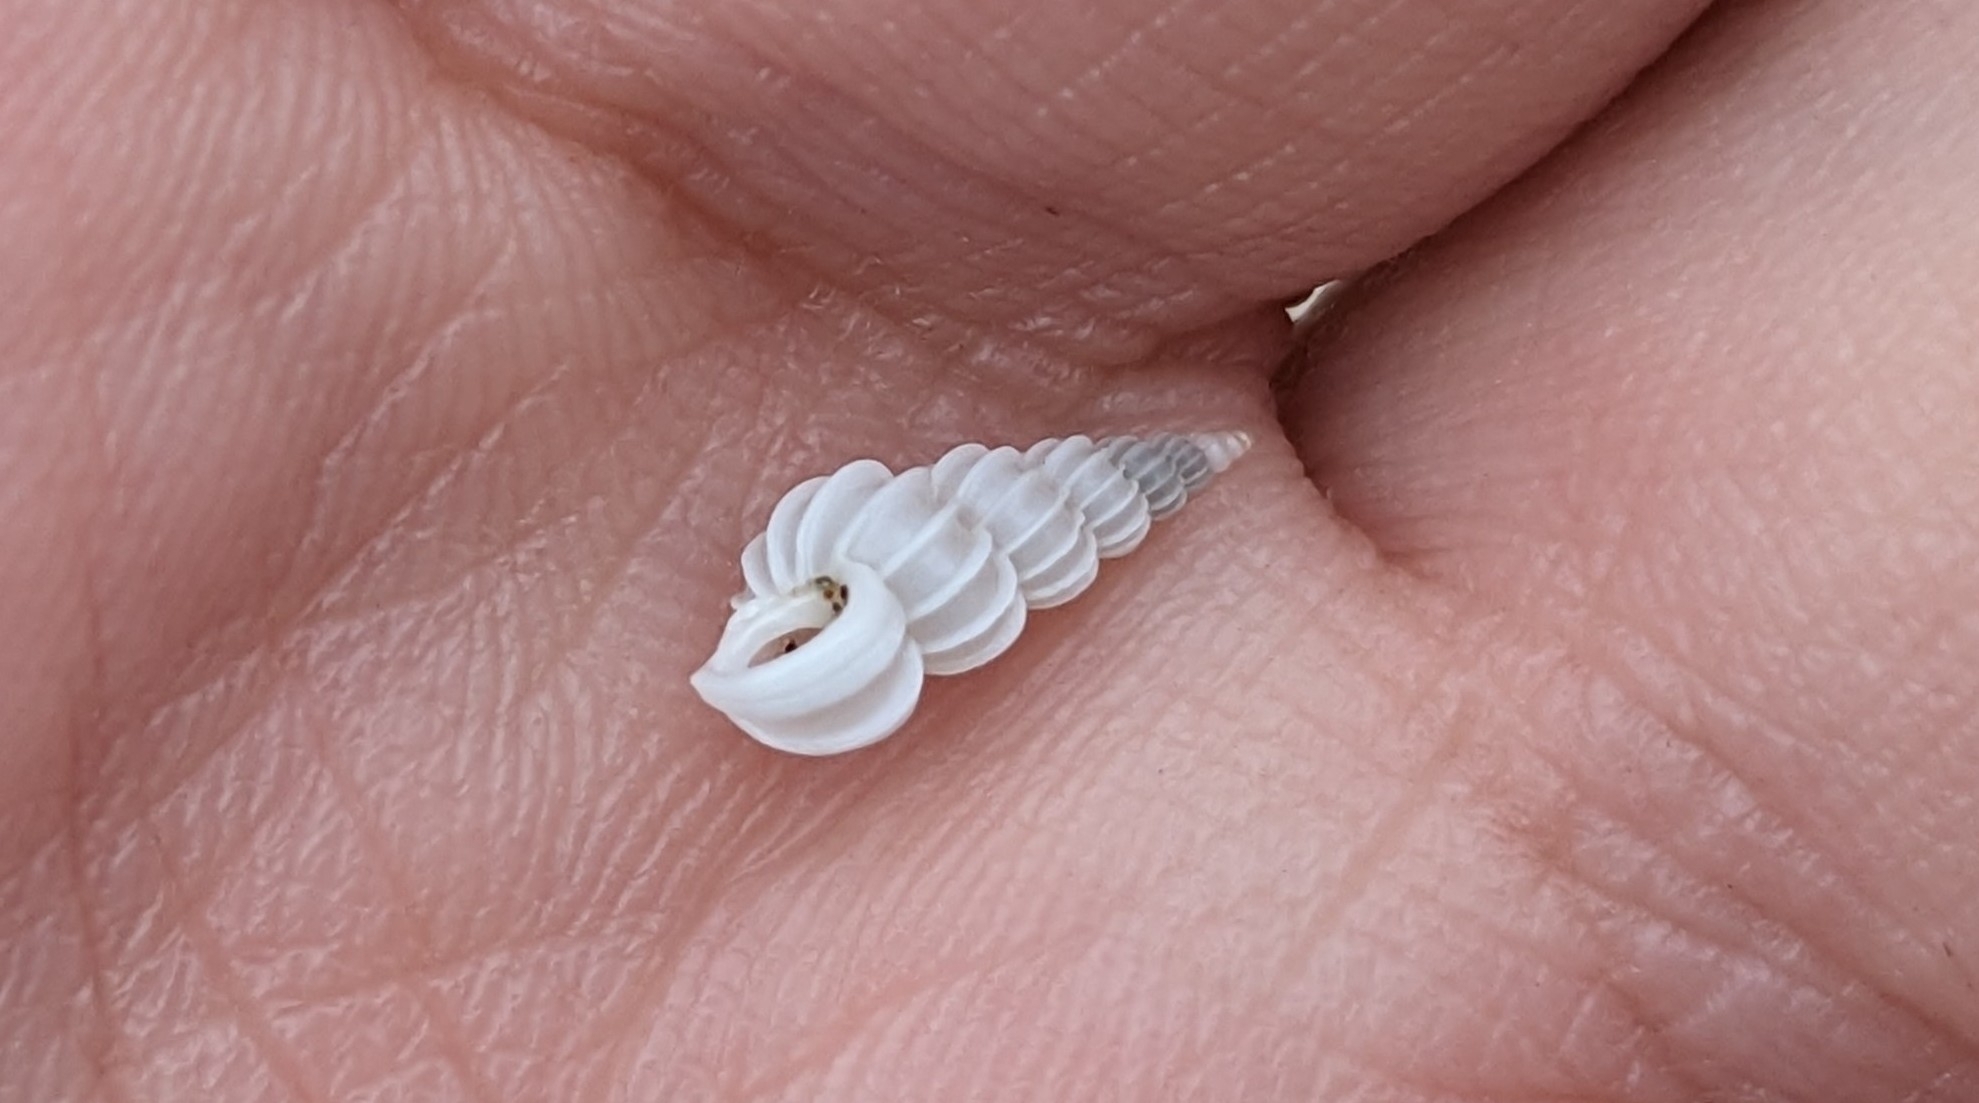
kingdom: Animalia
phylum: Mollusca
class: Gastropoda
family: Epitoniidae
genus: Epitonium
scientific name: Epitonium humphreysii
